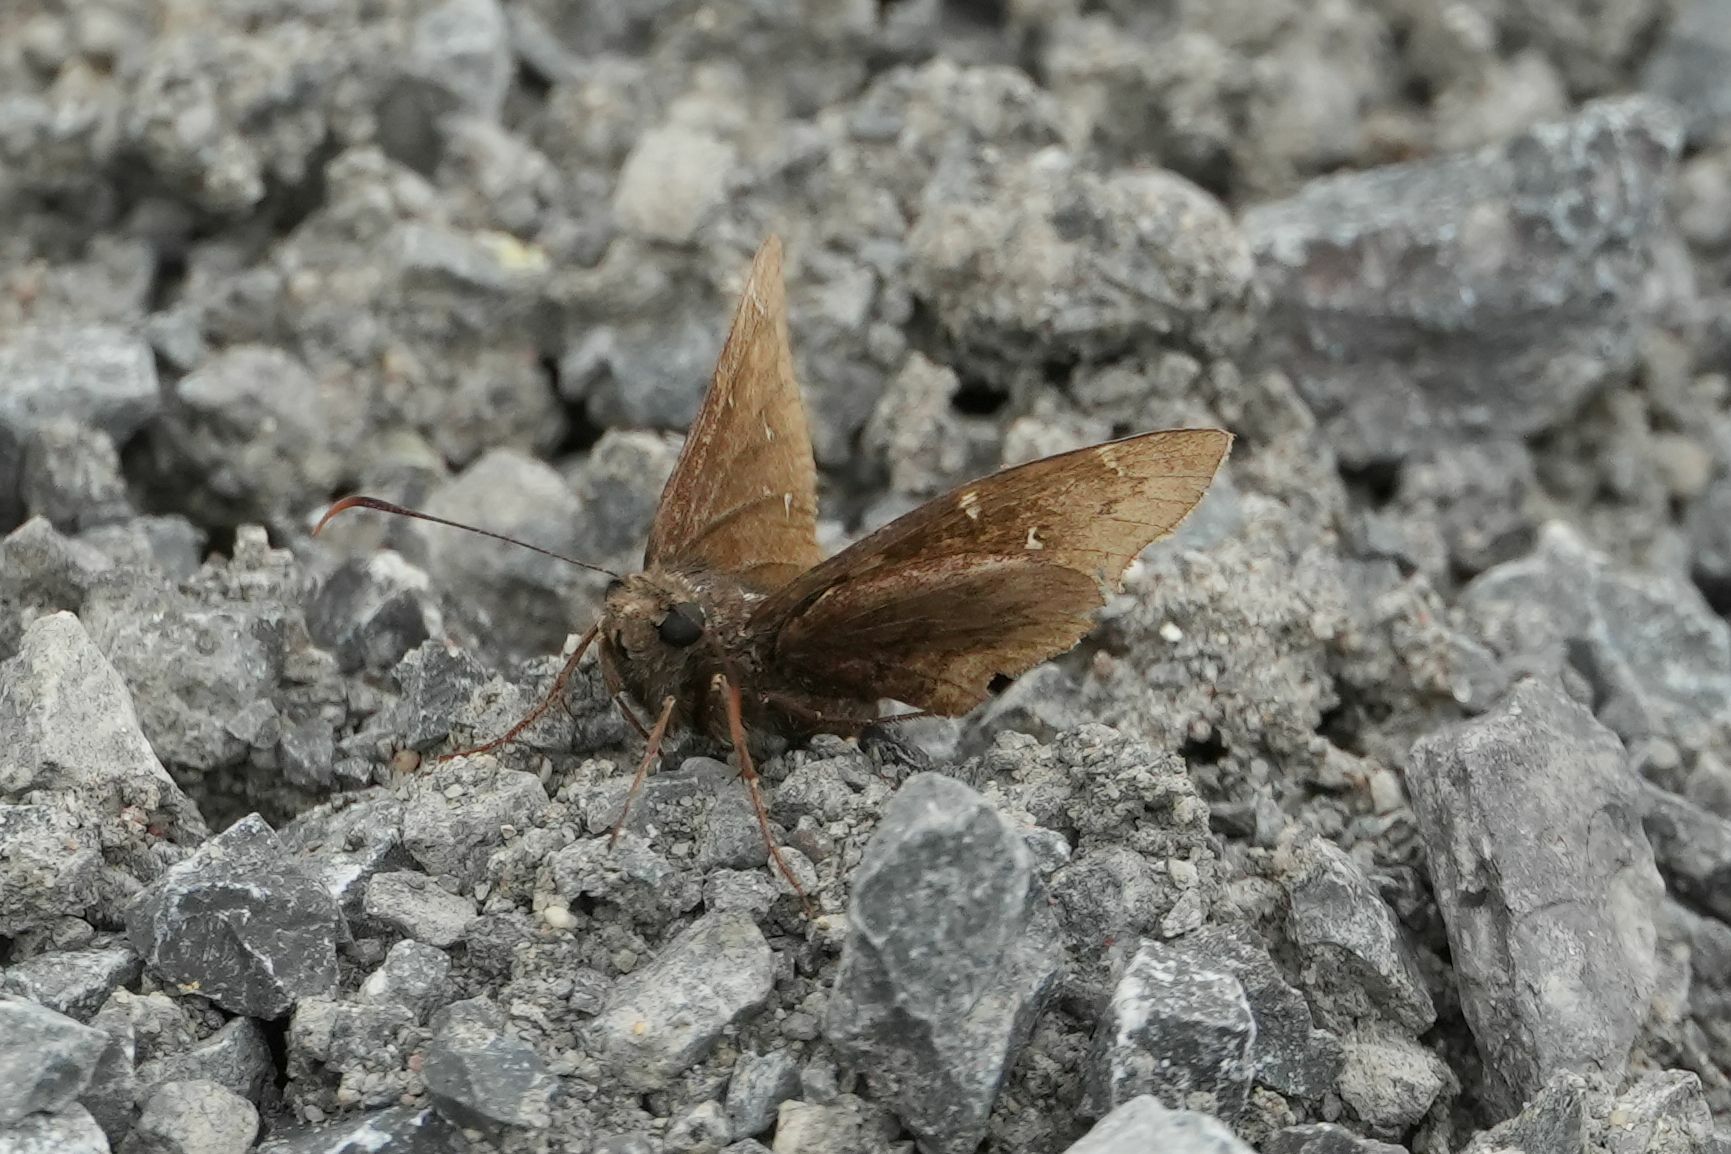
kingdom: Animalia
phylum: Arthropoda
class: Insecta
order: Lepidoptera
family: Hesperiidae
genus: Thorybes
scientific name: Thorybes pylades
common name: Northern cloudywing
